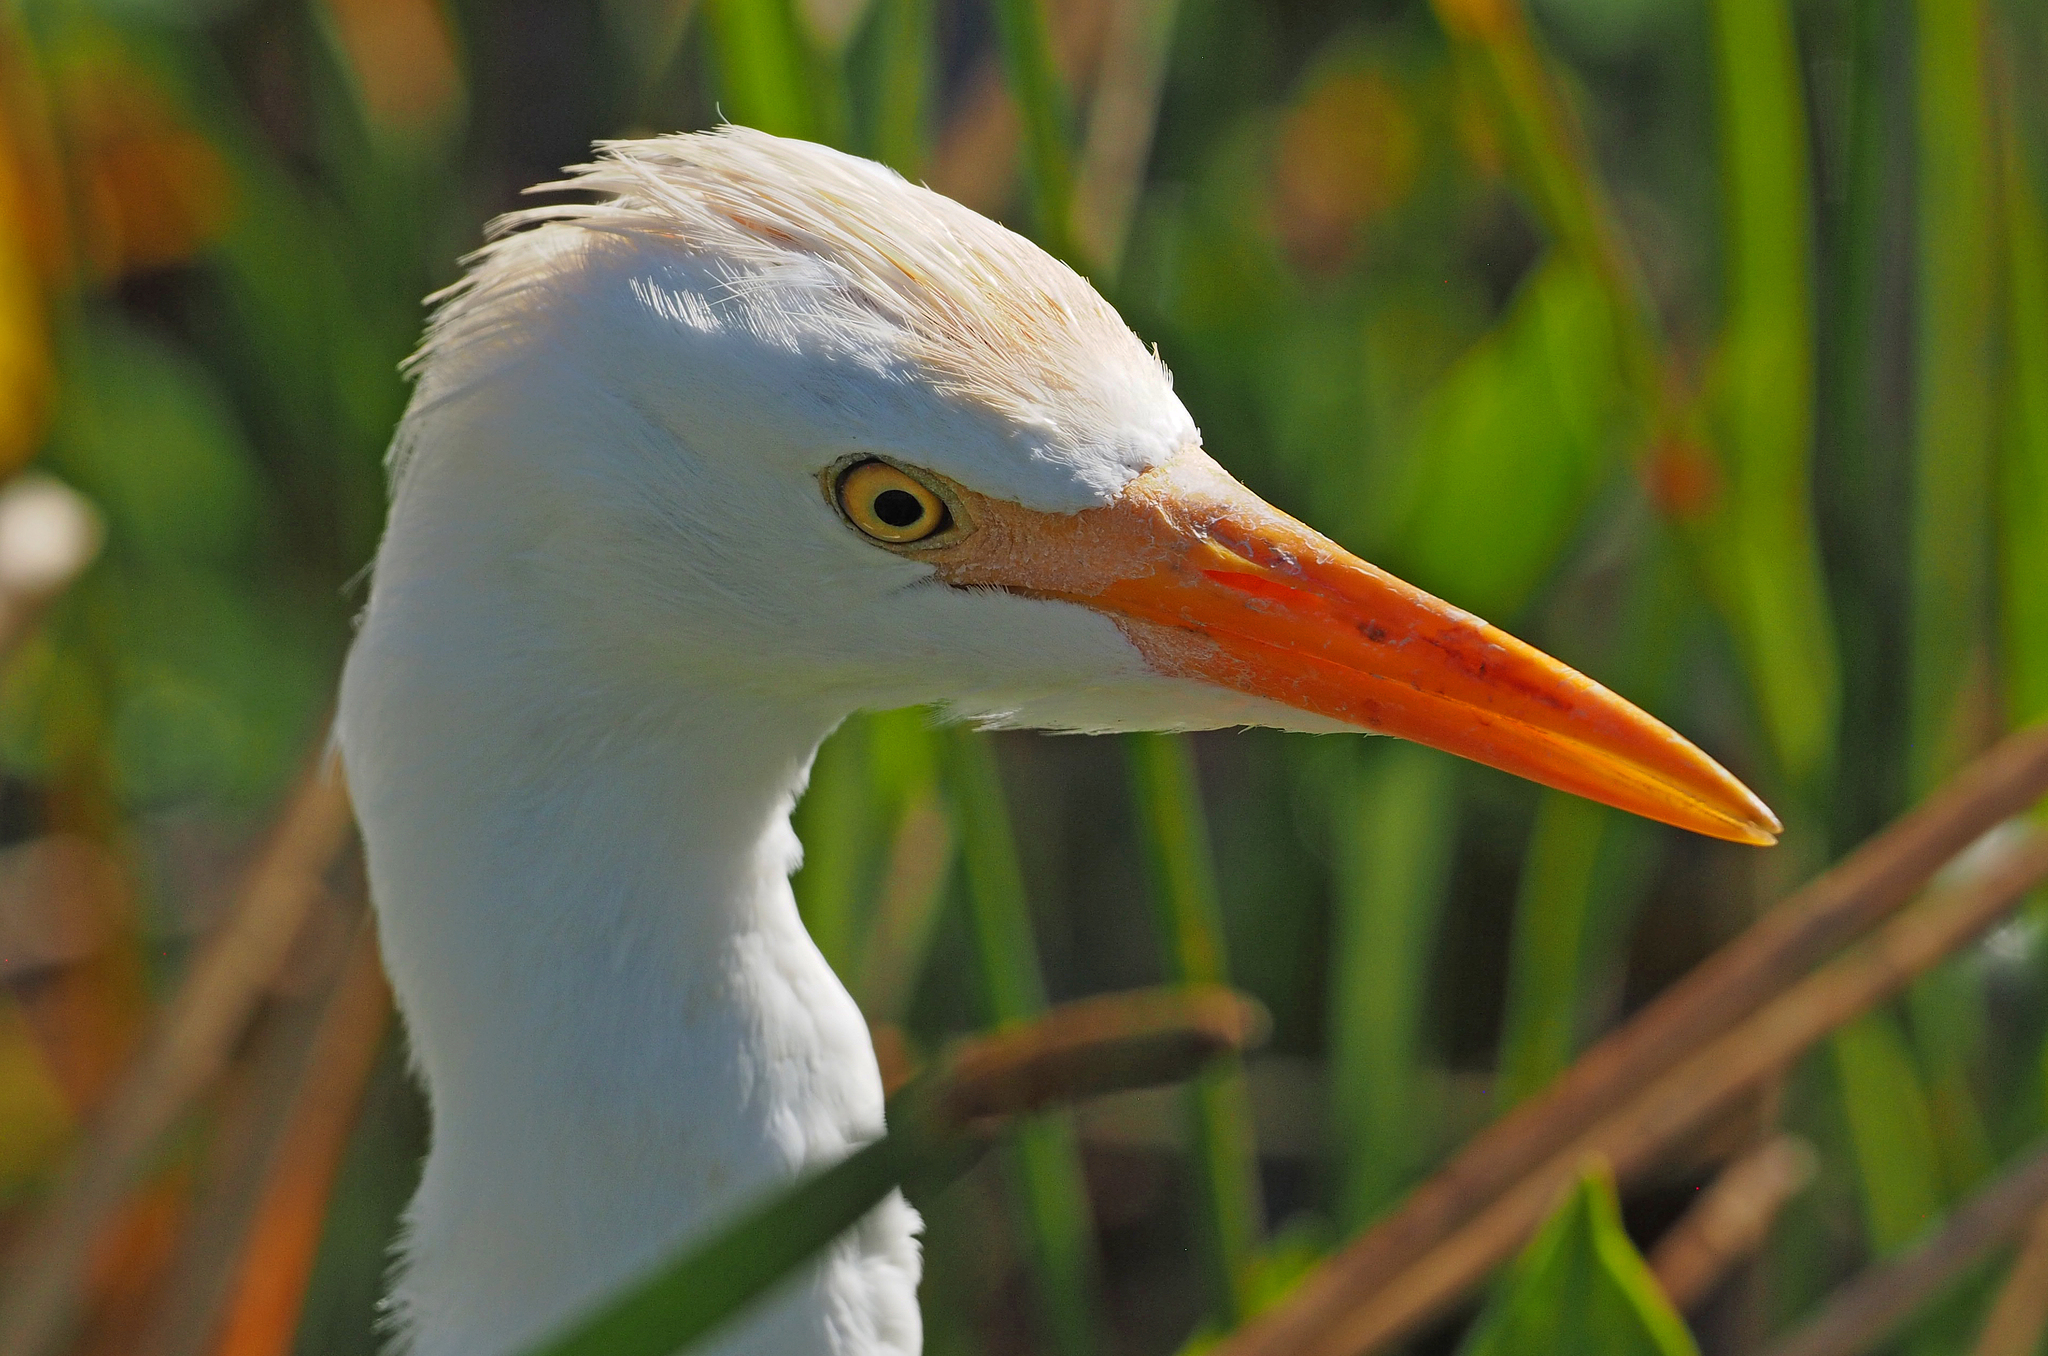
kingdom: Animalia
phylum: Chordata
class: Aves
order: Pelecaniformes
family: Ardeidae
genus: Bubulcus
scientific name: Bubulcus ibis
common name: Cattle egret
